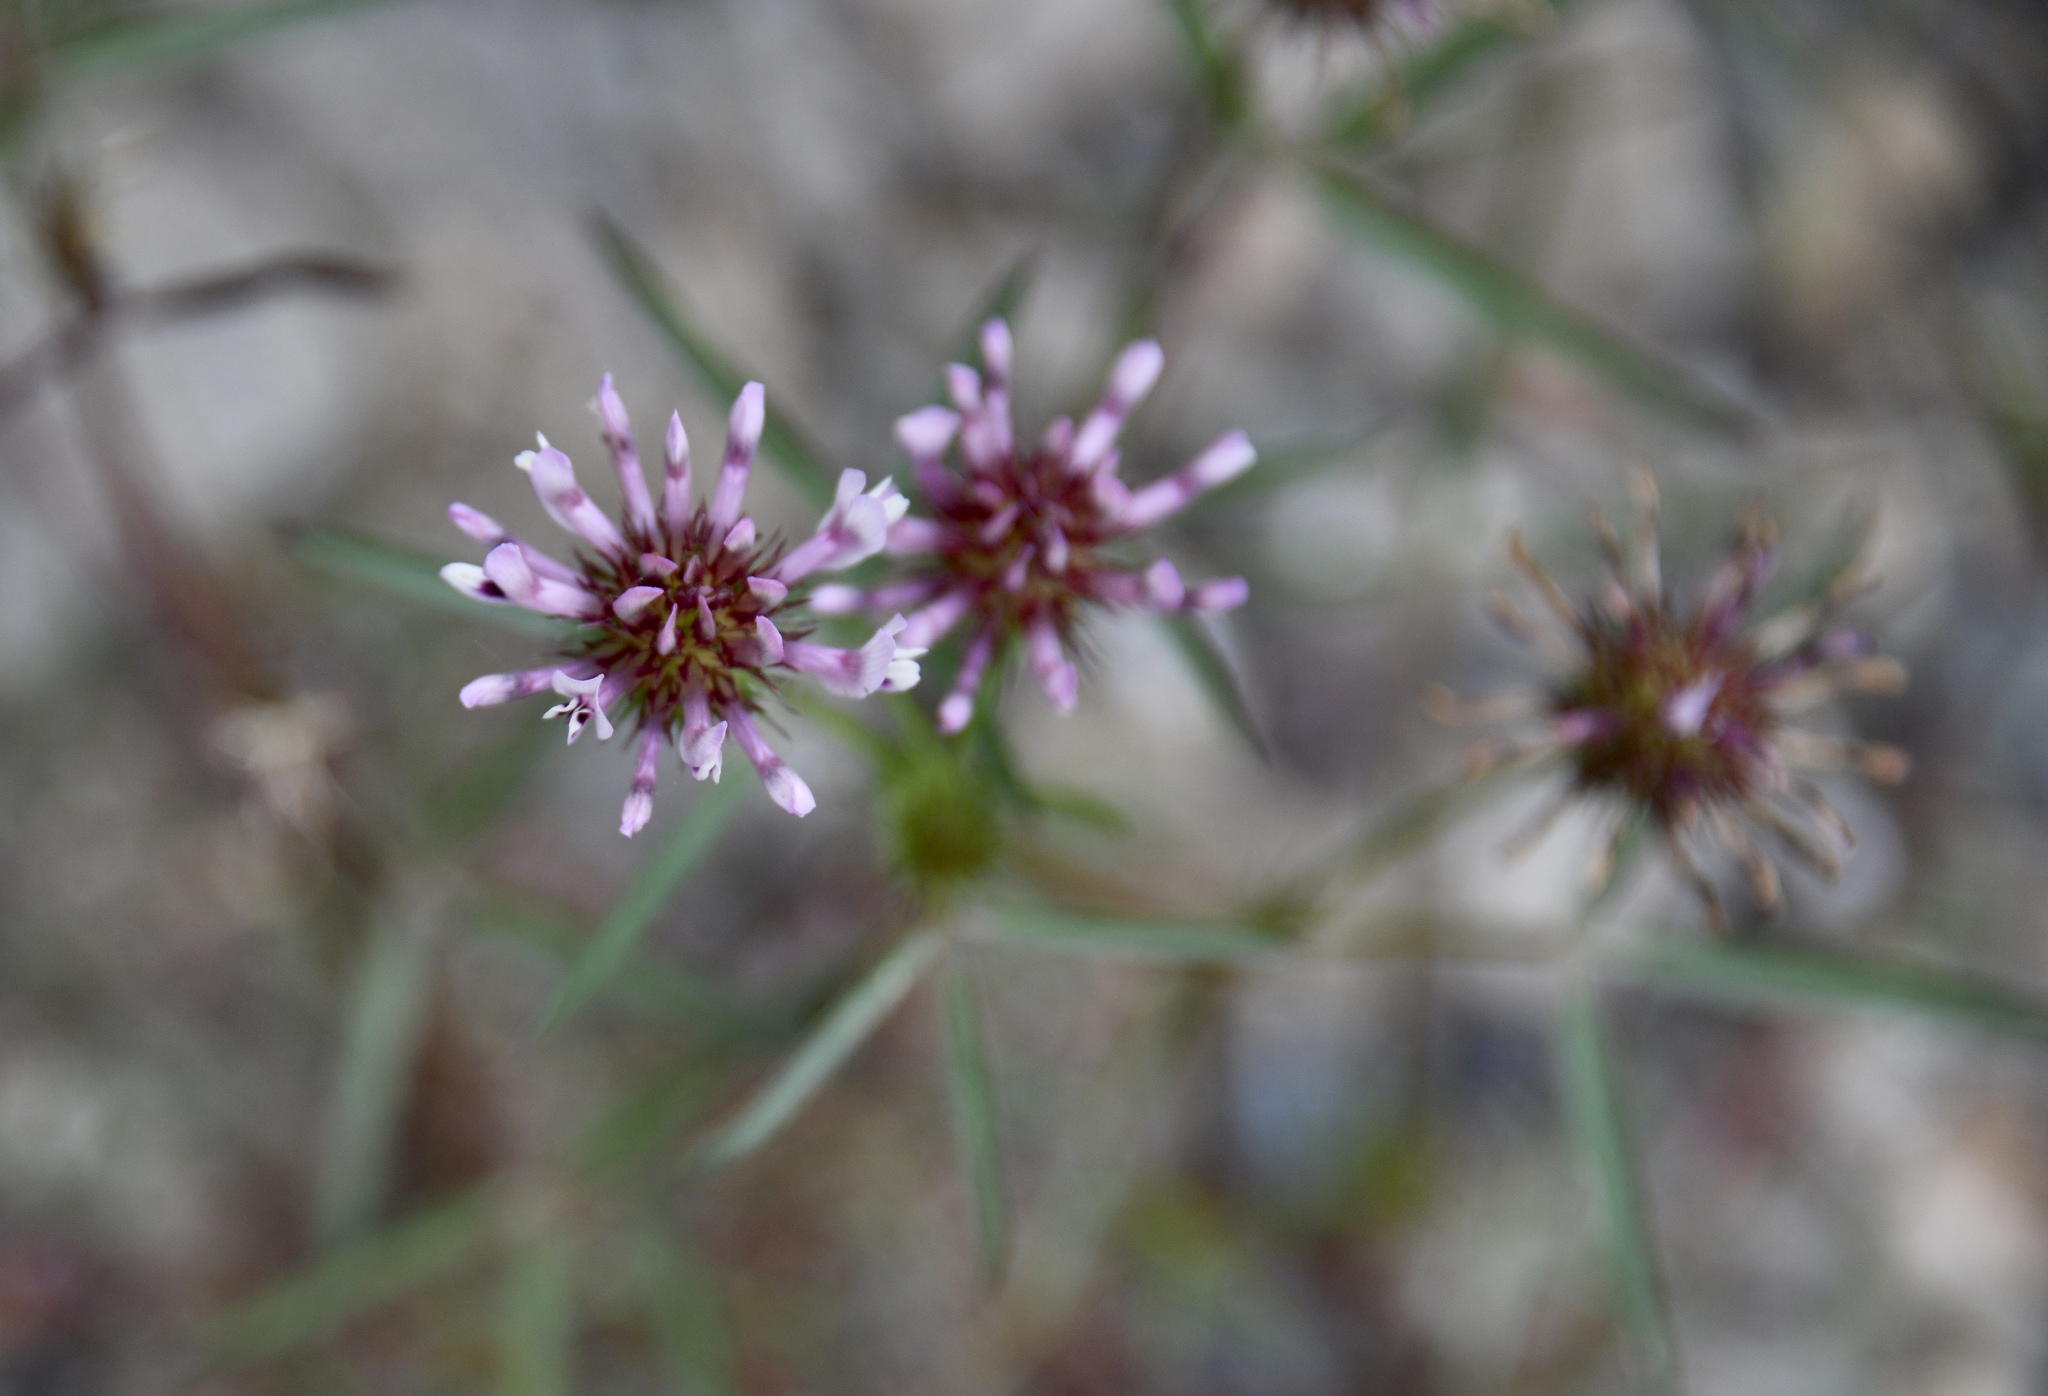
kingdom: Plantae
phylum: Tracheophyta
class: Magnoliopsida
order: Fabales
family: Fabaceae
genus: Trifolium
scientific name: Trifolium willdenovii
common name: Tomcat clover
